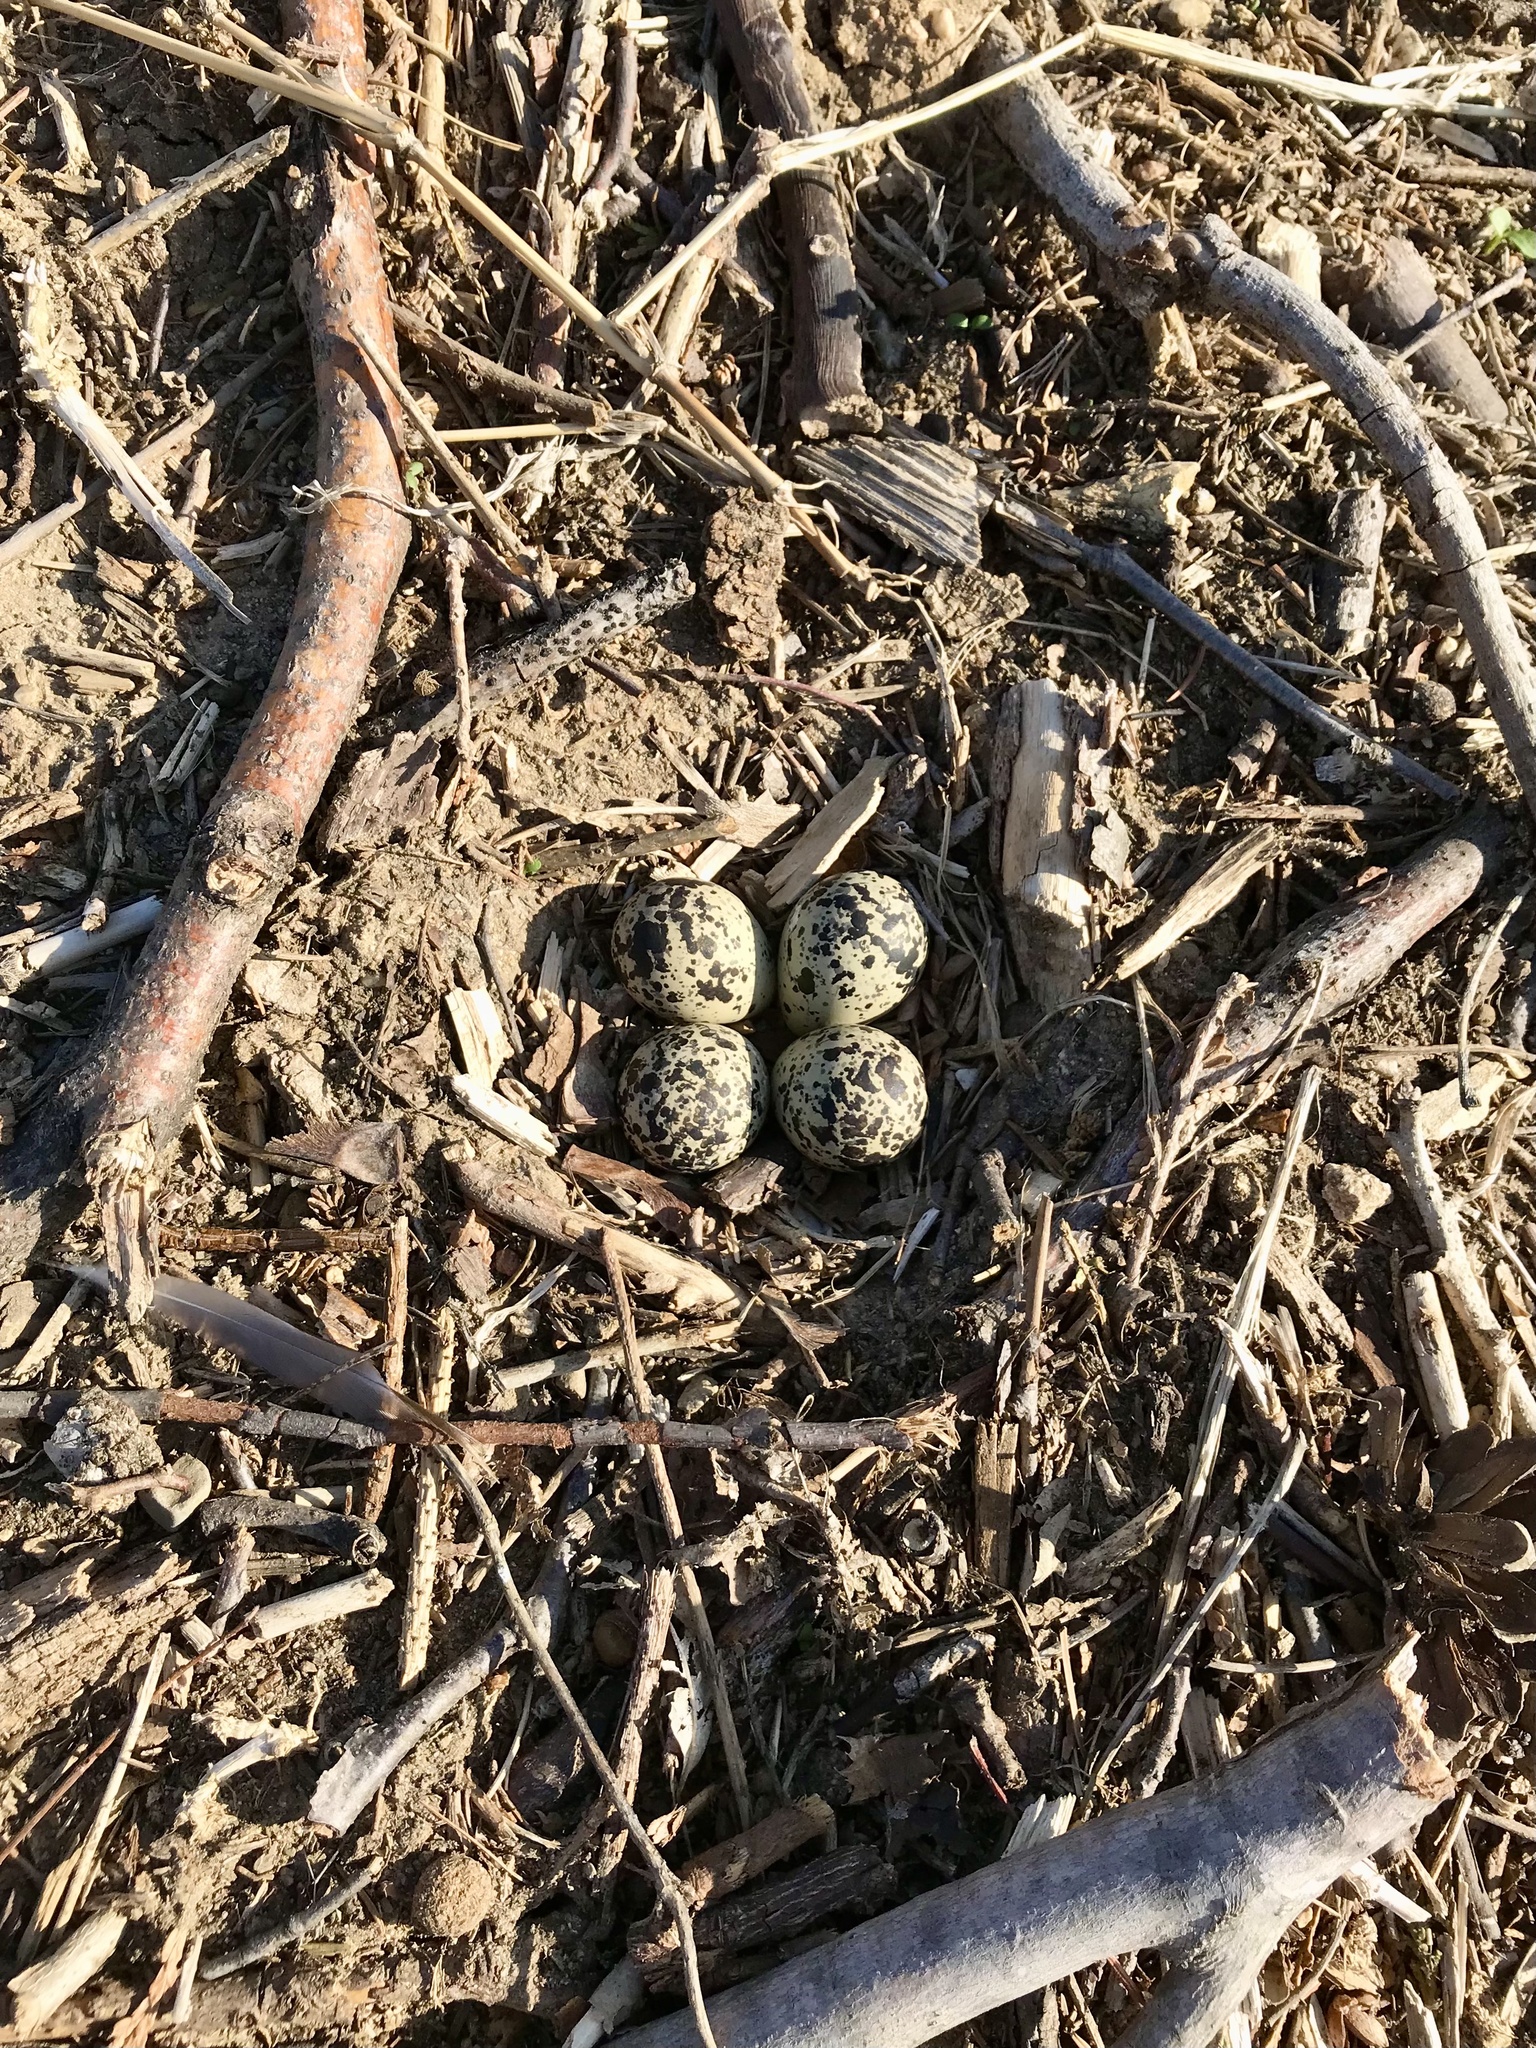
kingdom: Animalia
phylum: Chordata
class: Aves
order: Charadriiformes
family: Charadriidae
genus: Charadrius
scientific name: Charadrius vociferus
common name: Killdeer
